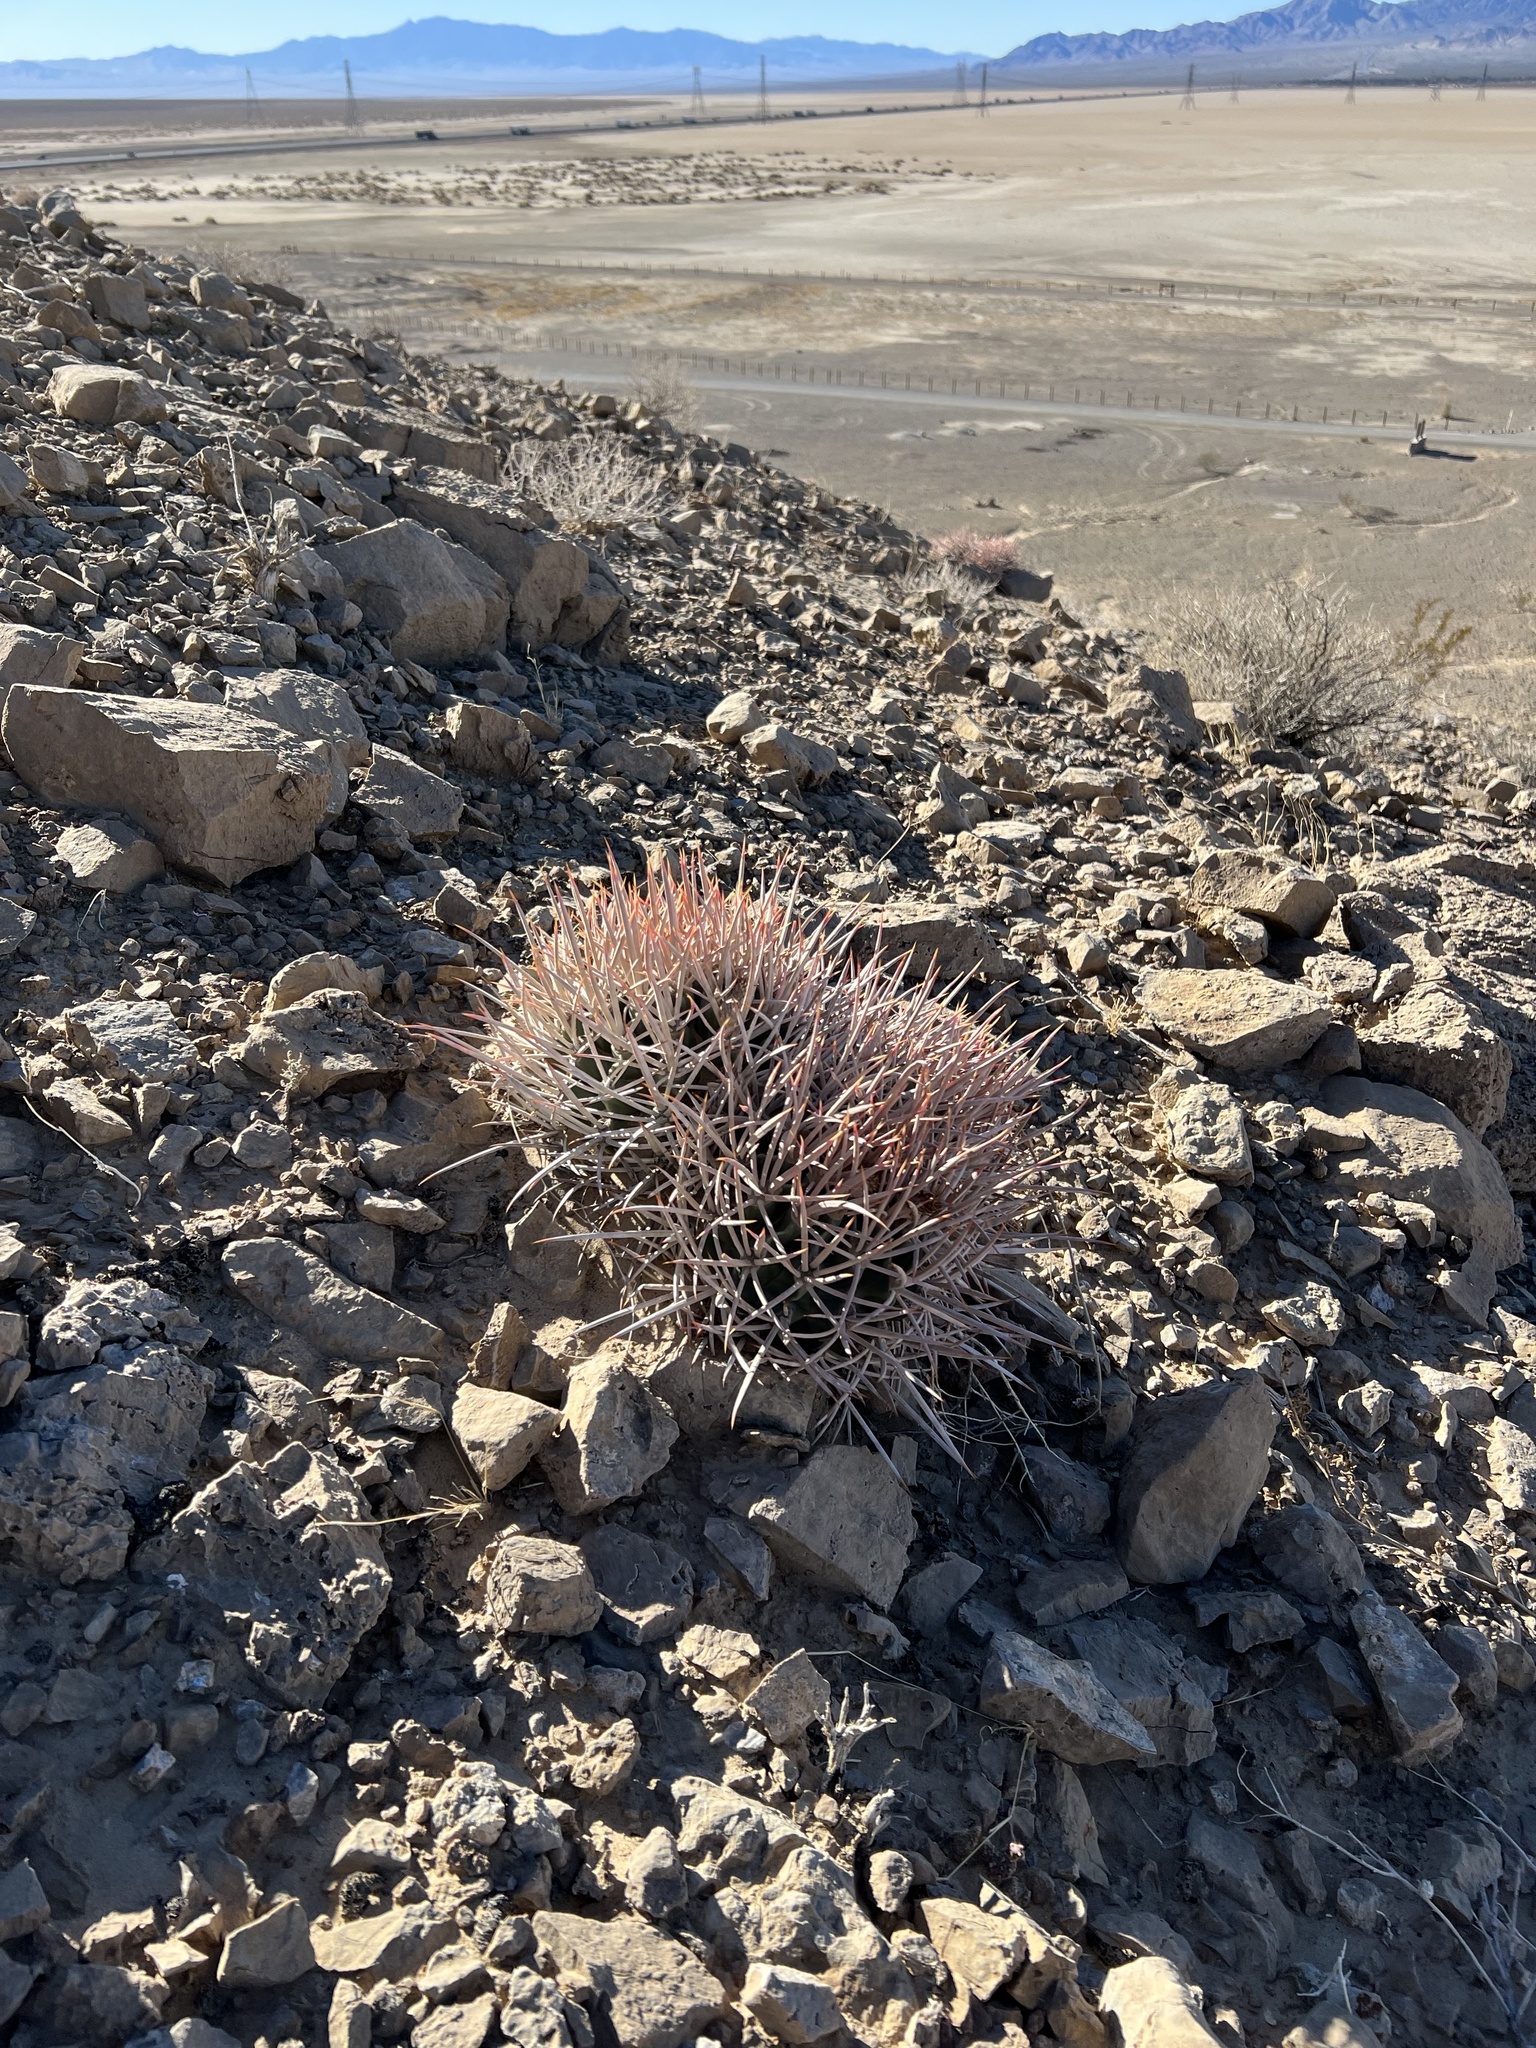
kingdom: Plantae
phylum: Tracheophyta
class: Magnoliopsida
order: Caryophyllales
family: Cactaceae
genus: Echinocactus
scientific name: Echinocactus polycephalus
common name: Cottontop cactus
